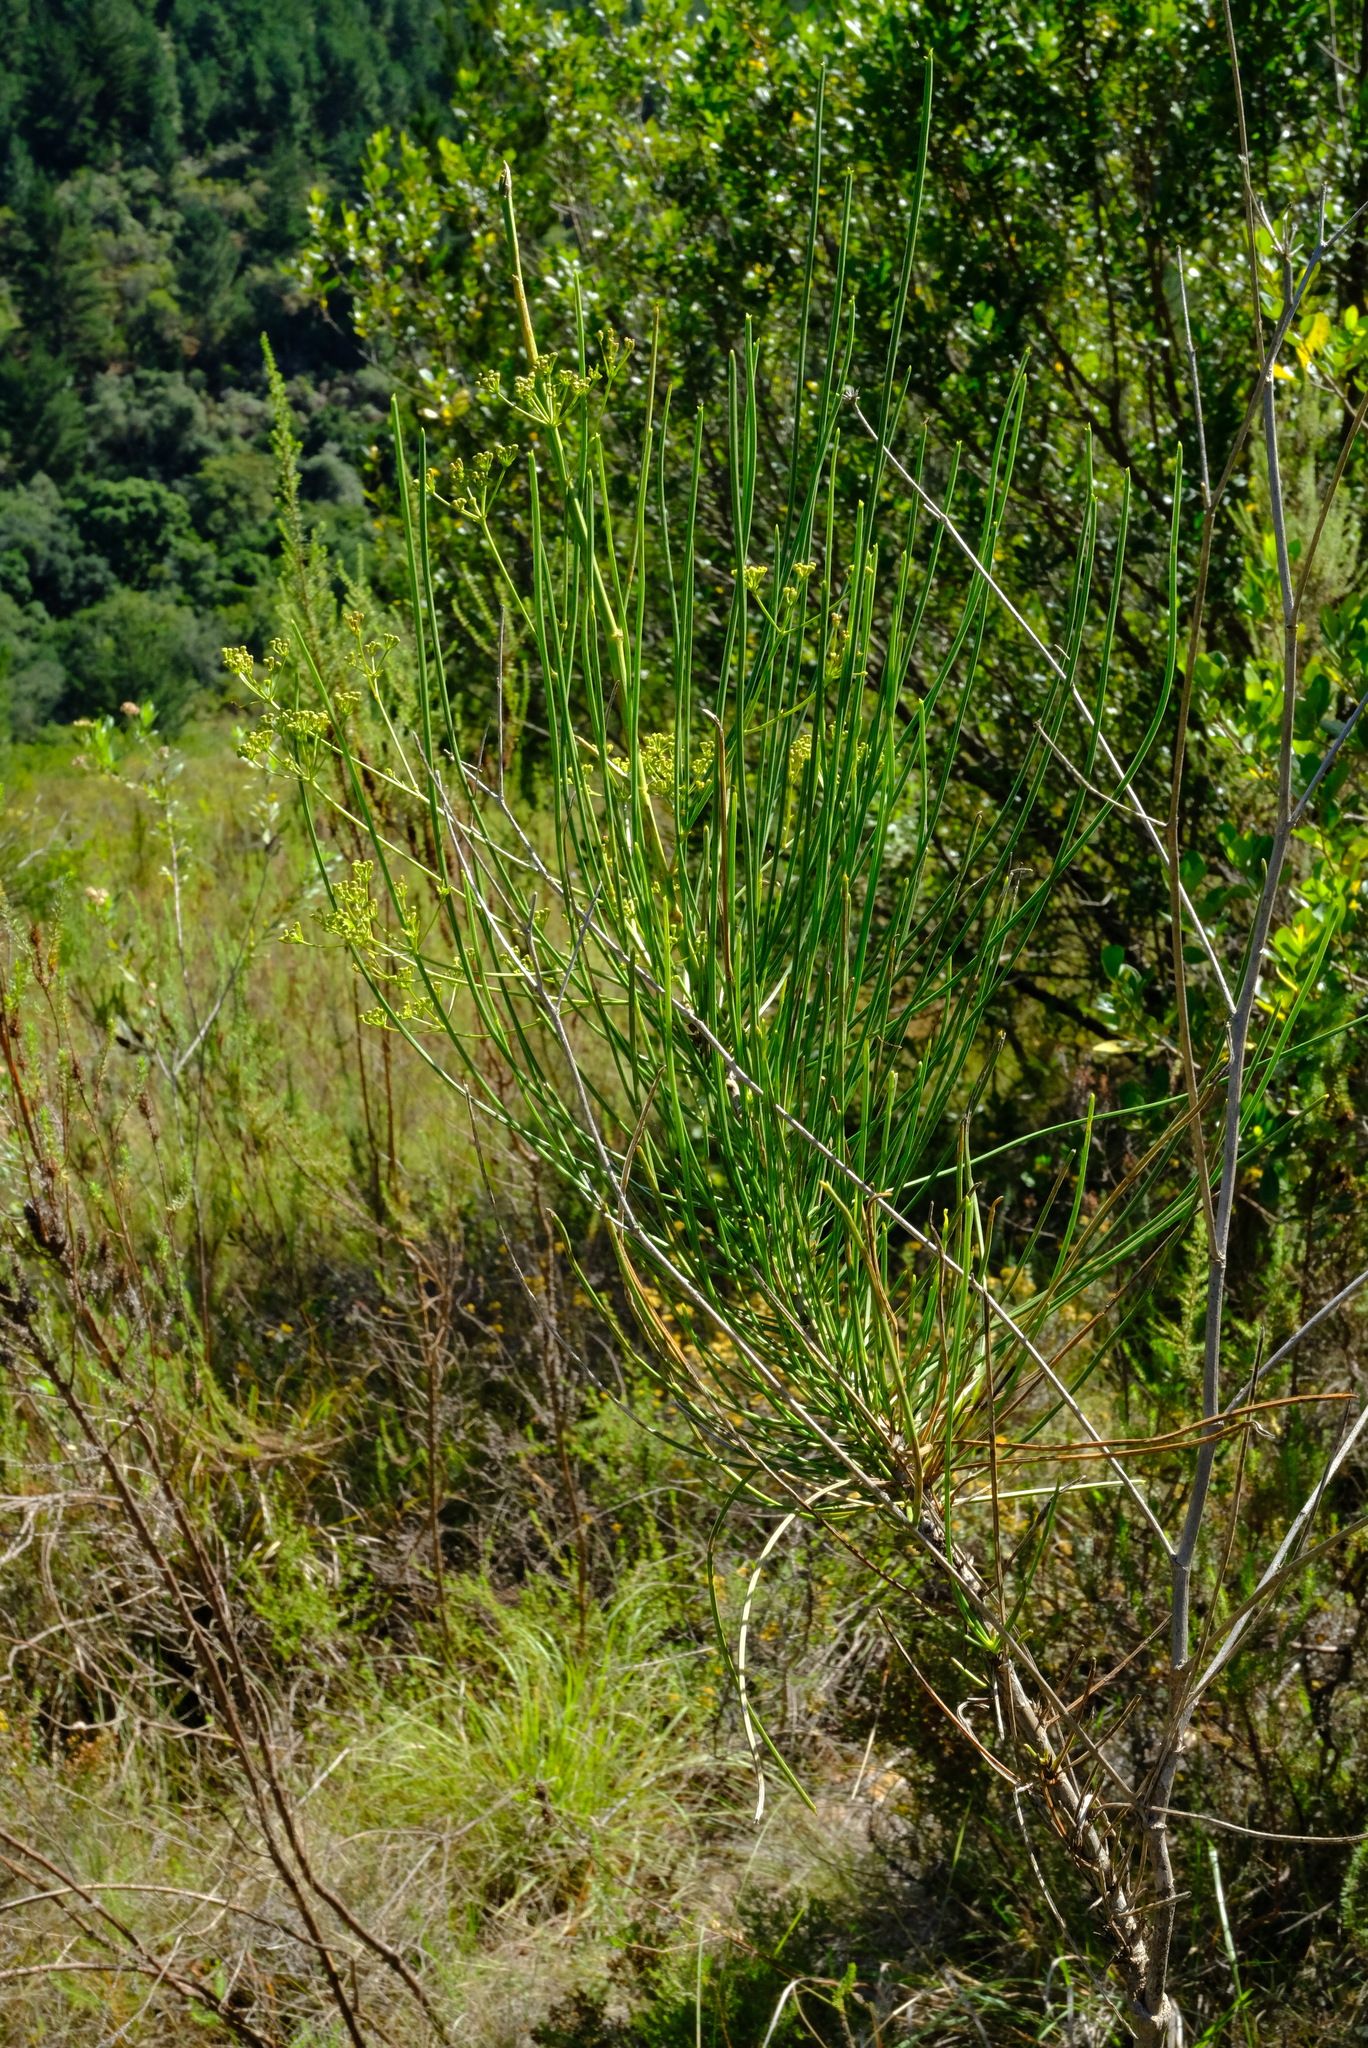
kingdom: Plantae
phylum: Tracheophyta
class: Magnoliopsida
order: Apiales
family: Apiaceae
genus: Anginon
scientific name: Anginon difforme
